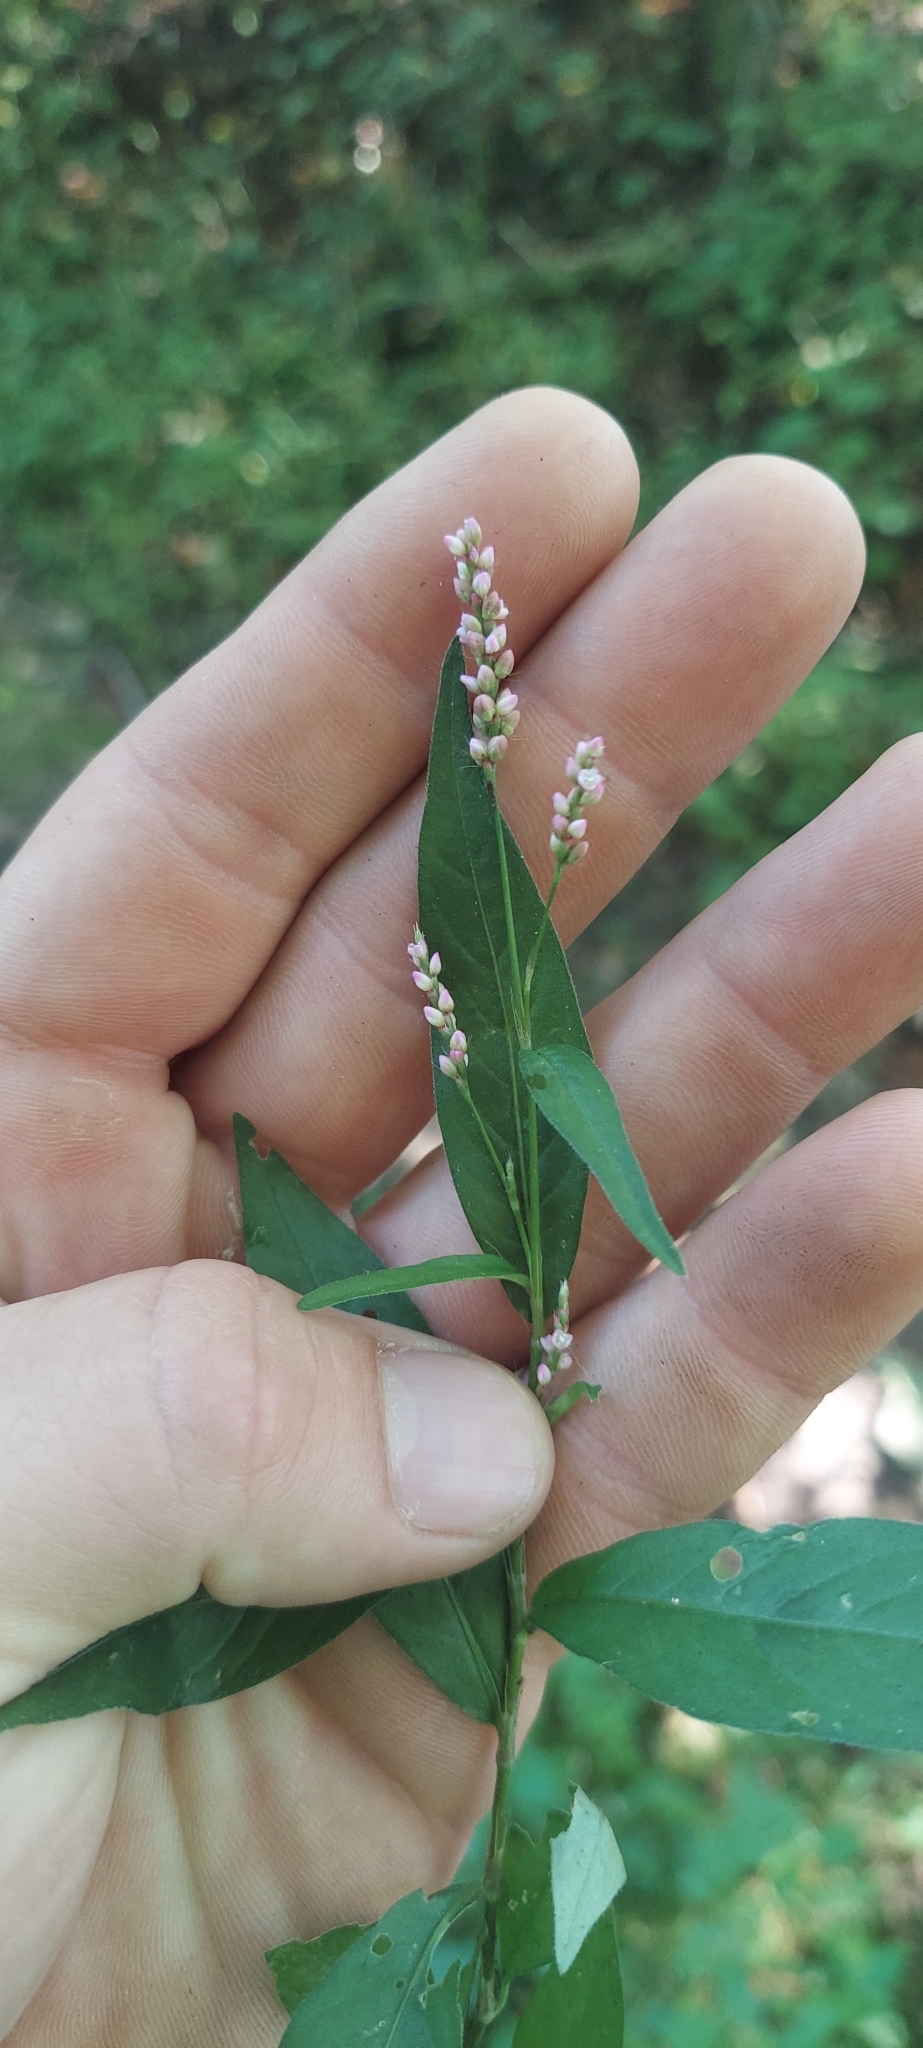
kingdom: Plantae
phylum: Tracheophyta
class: Magnoliopsida
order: Caryophyllales
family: Polygonaceae
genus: Persicaria
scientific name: Persicaria longiseta
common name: Bristly lady's-thumb
